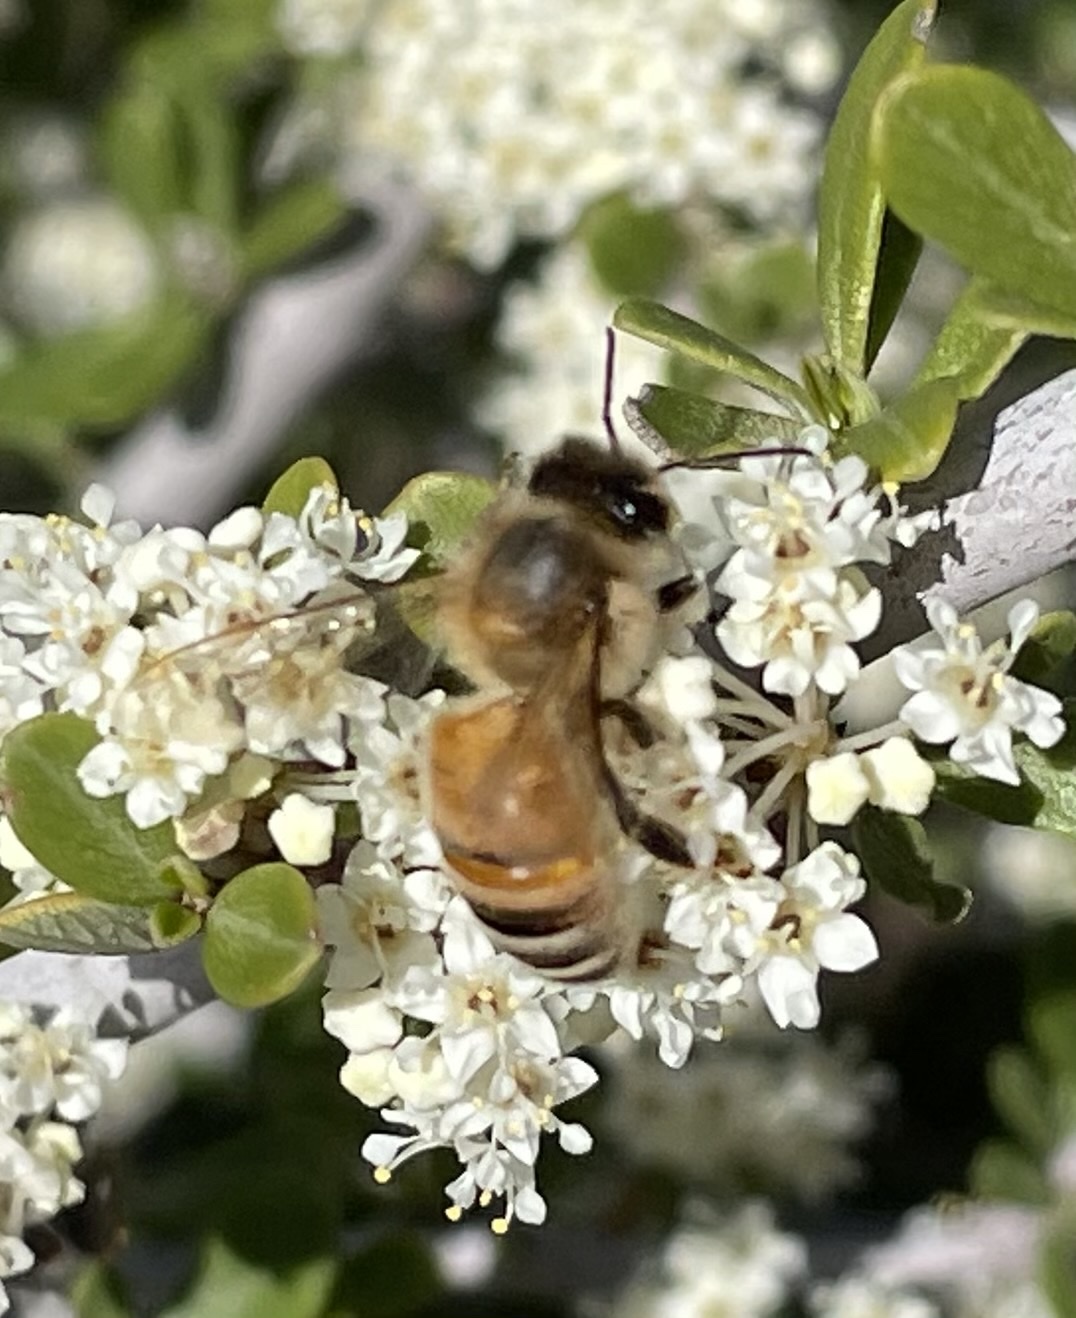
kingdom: Animalia
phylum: Arthropoda
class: Insecta
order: Hymenoptera
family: Apidae
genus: Apis
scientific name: Apis mellifera
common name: Honey bee
